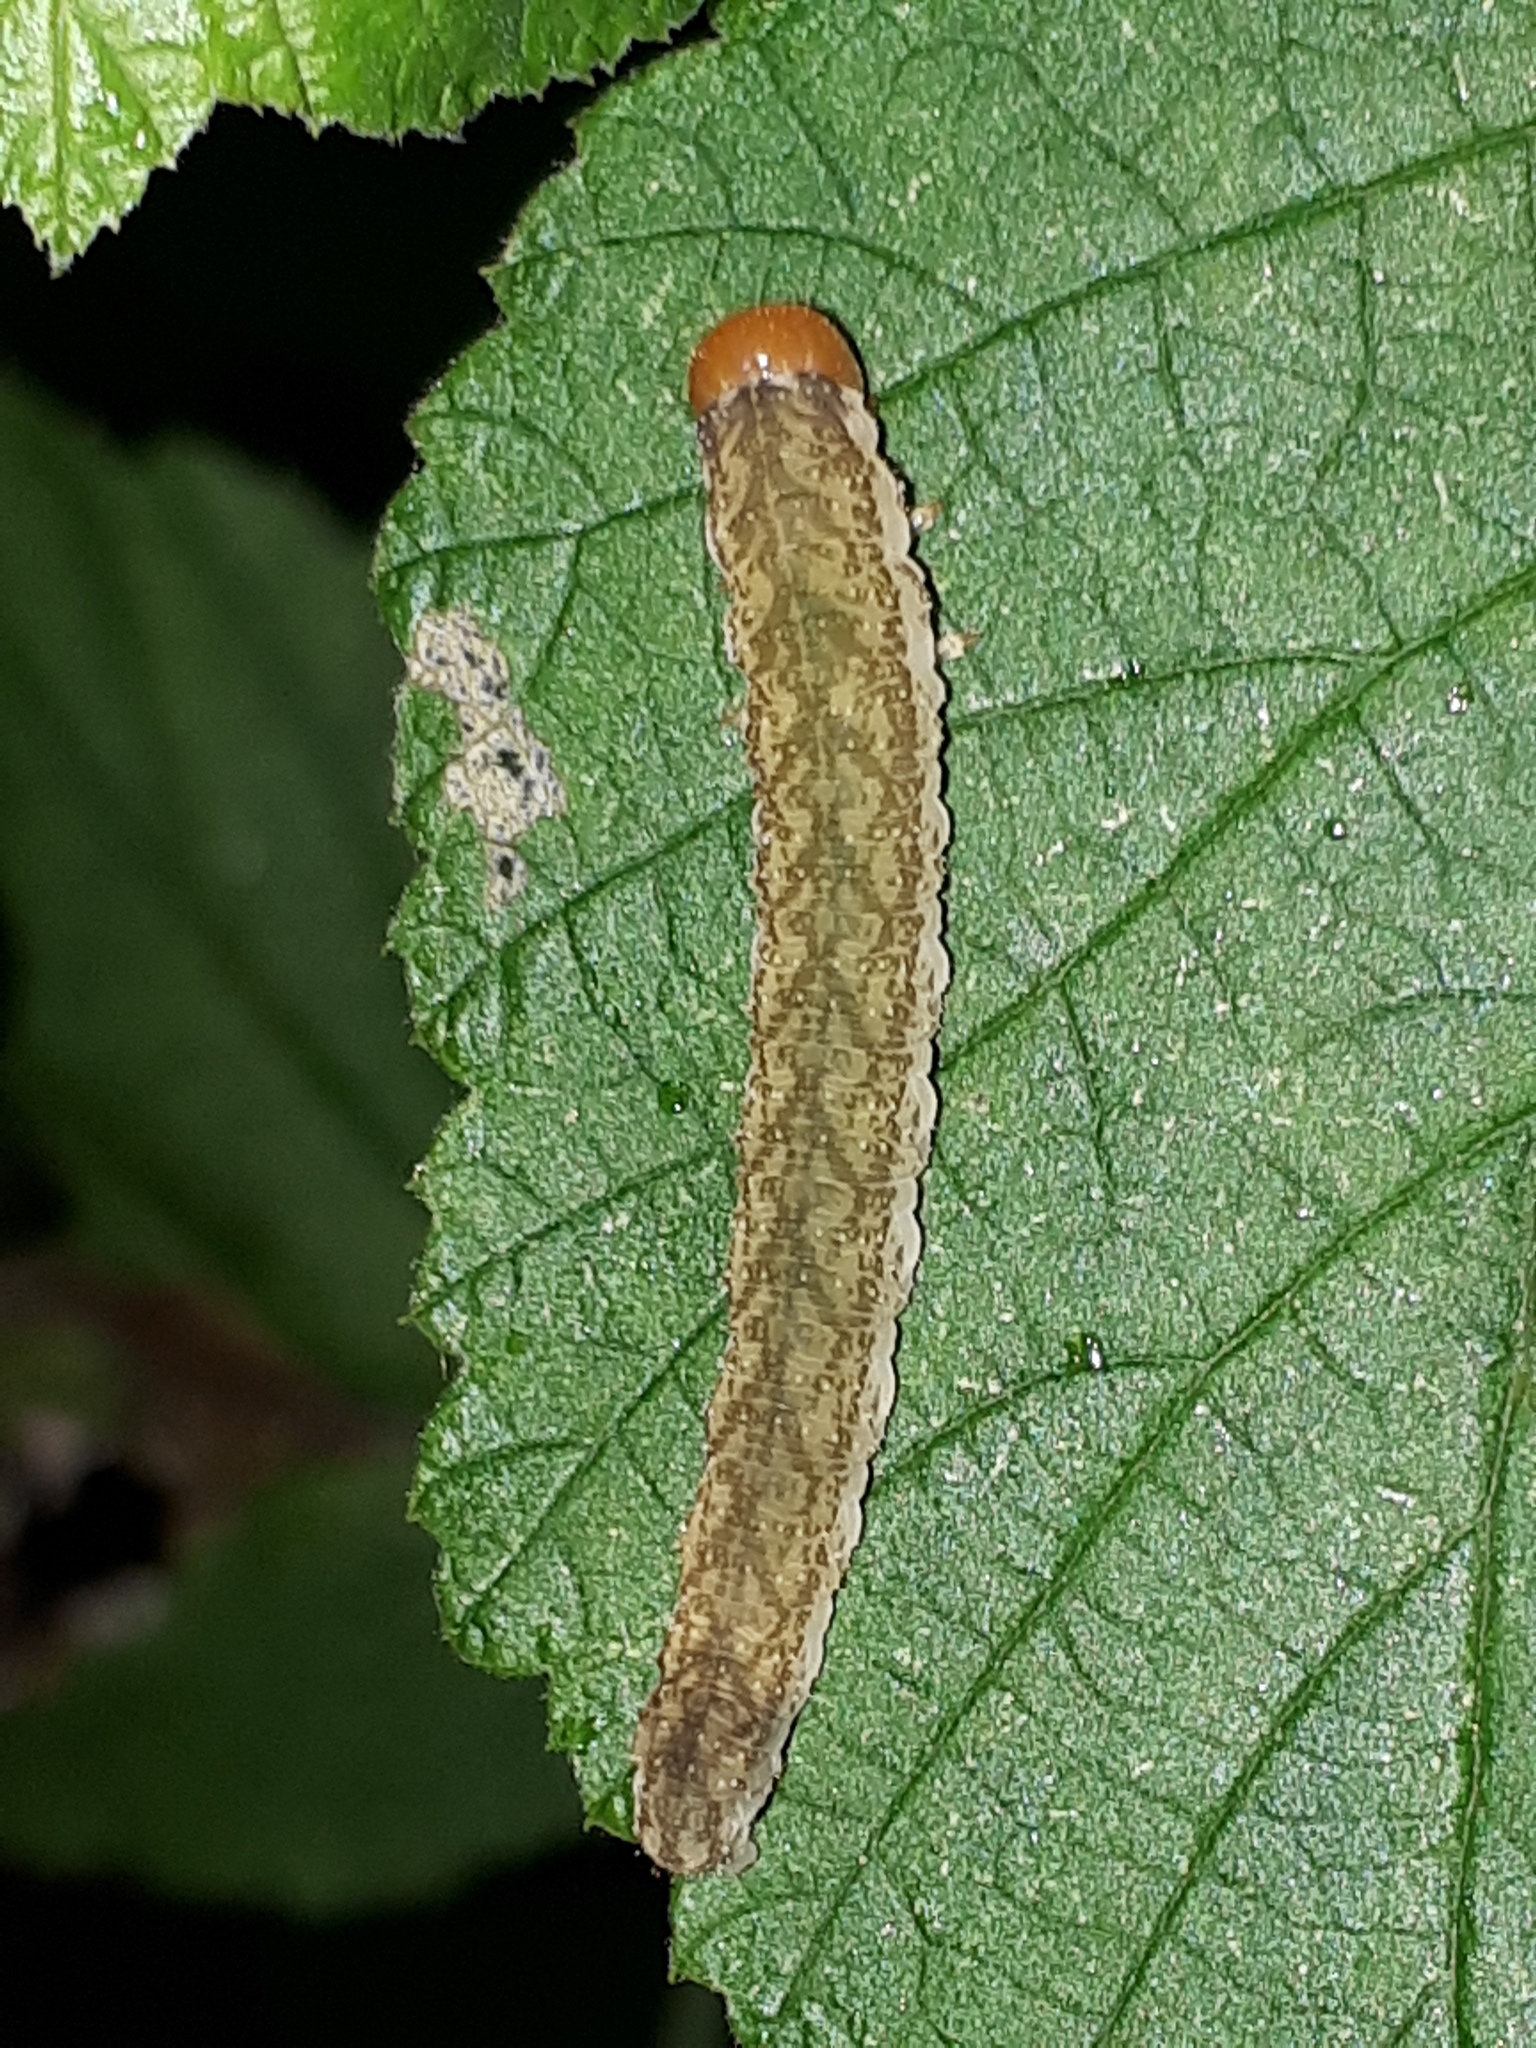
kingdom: Animalia
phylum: Arthropoda
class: Insecta
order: Hymenoptera
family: Tenthredinidae
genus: Tenthredo
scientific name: Tenthredo livida
